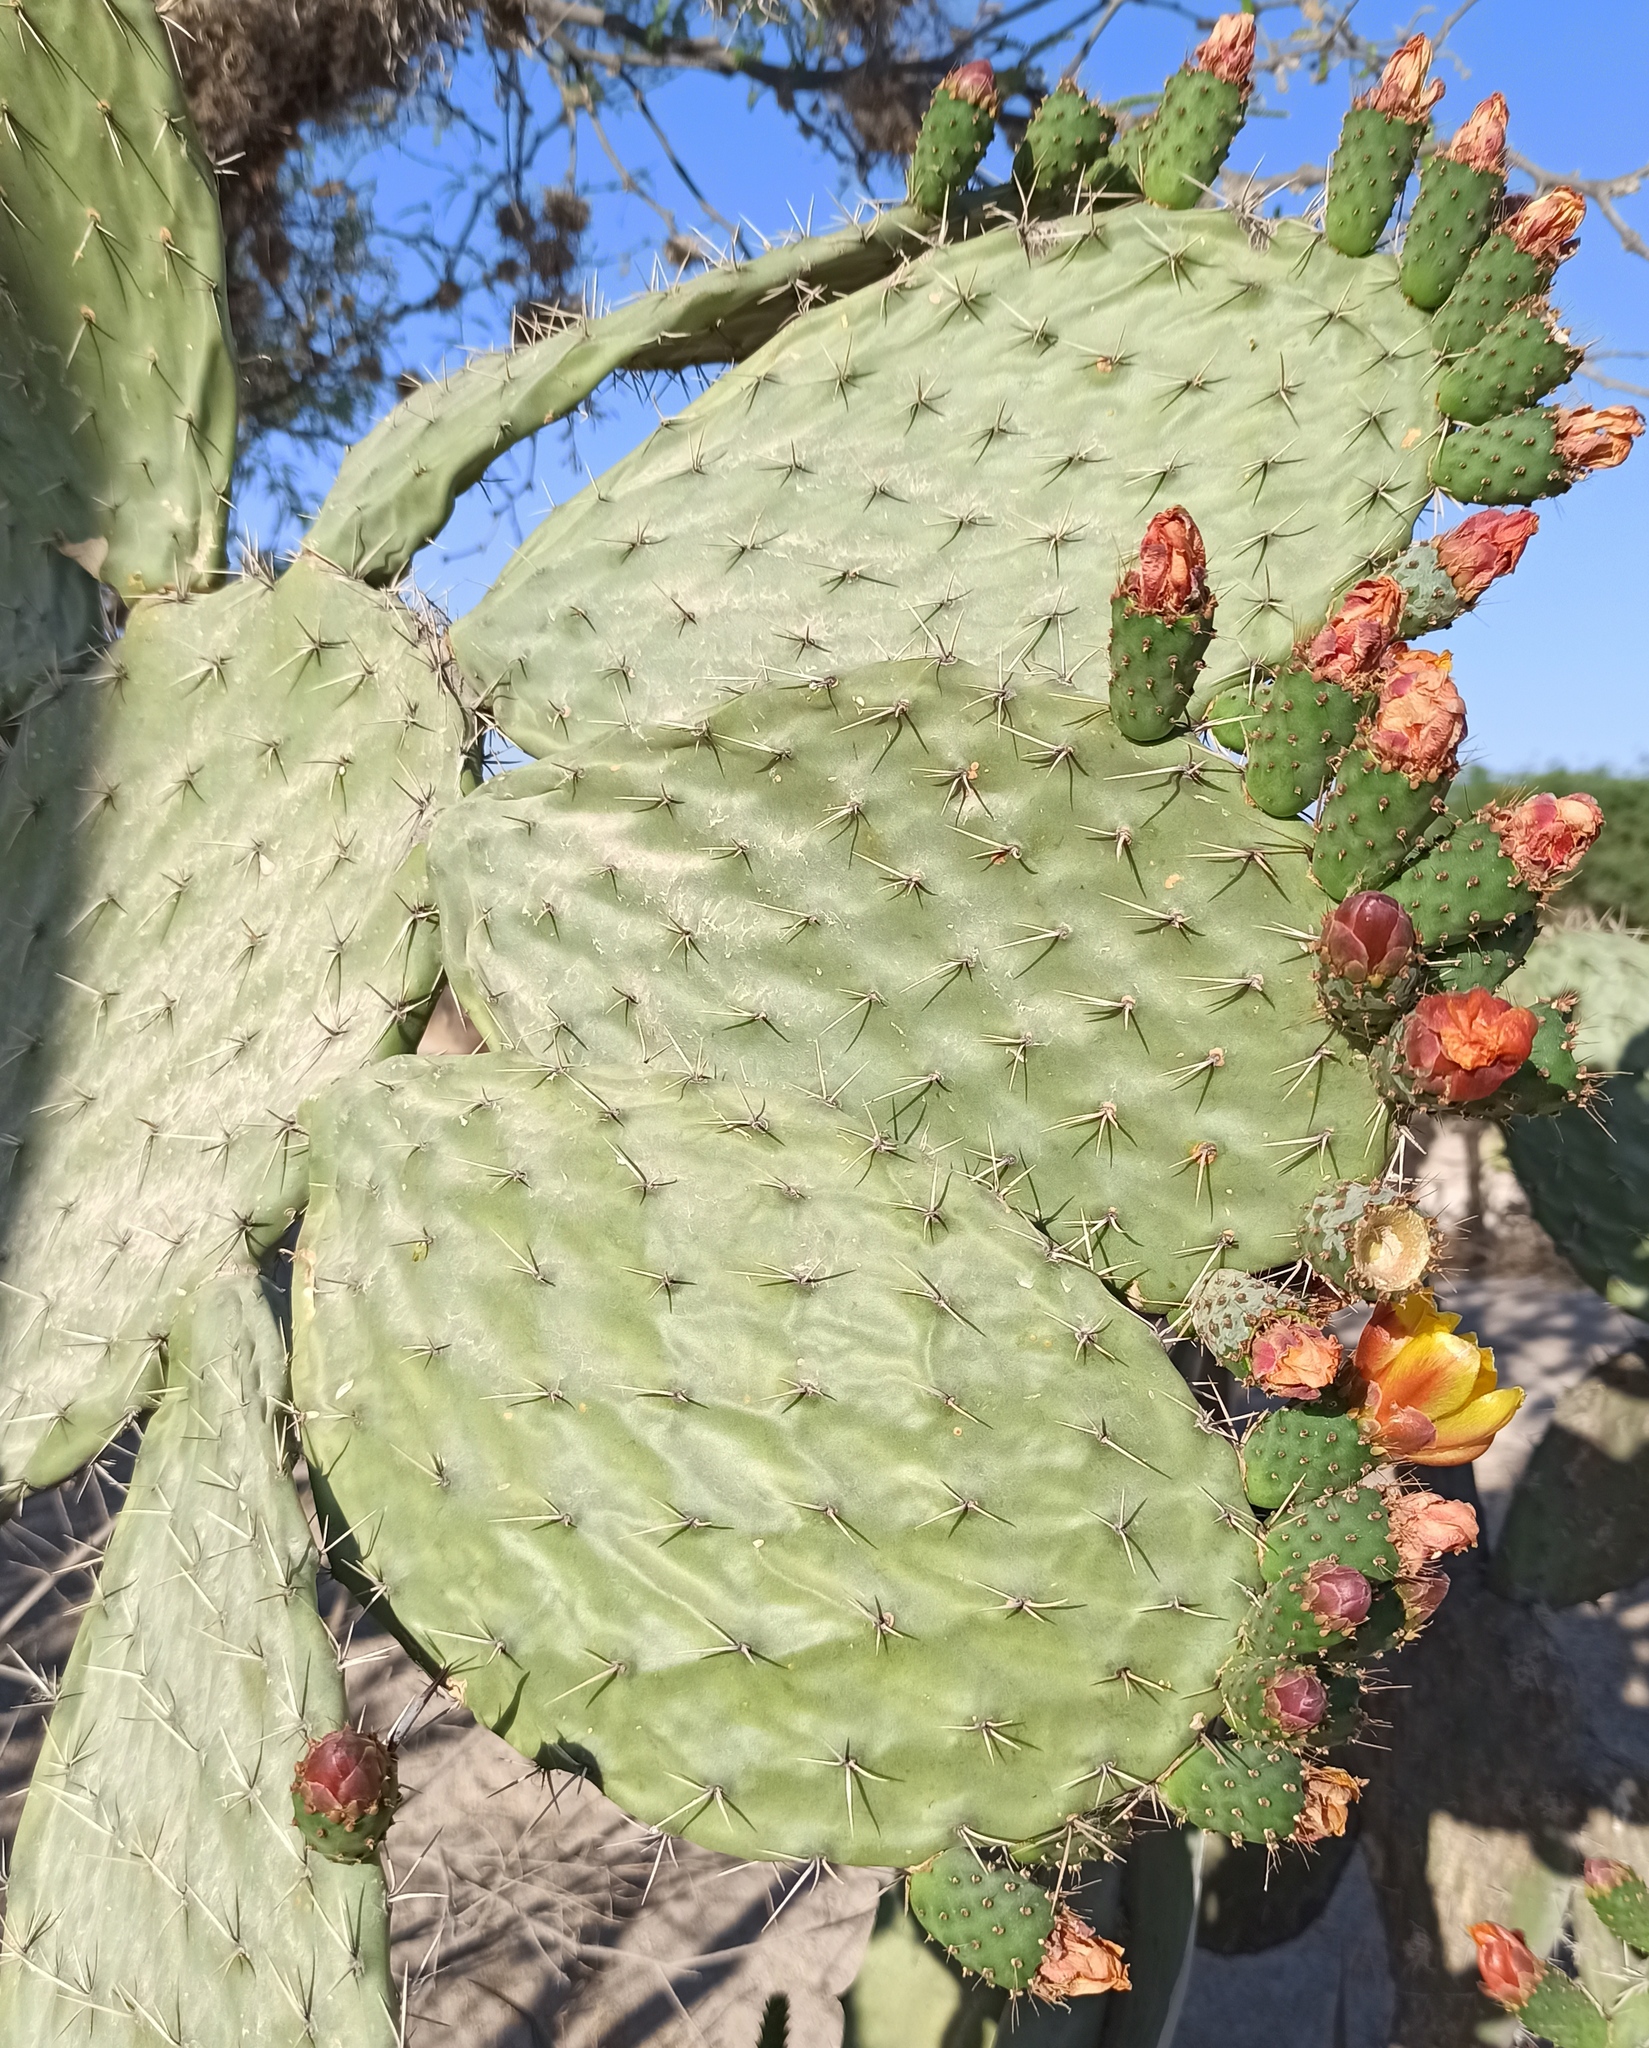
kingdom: Plantae
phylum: Tracheophyta
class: Magnoliopsida
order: Caryophyllales
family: Cactaceae
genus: Opuntia
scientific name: Opuntia hyptiacantha
